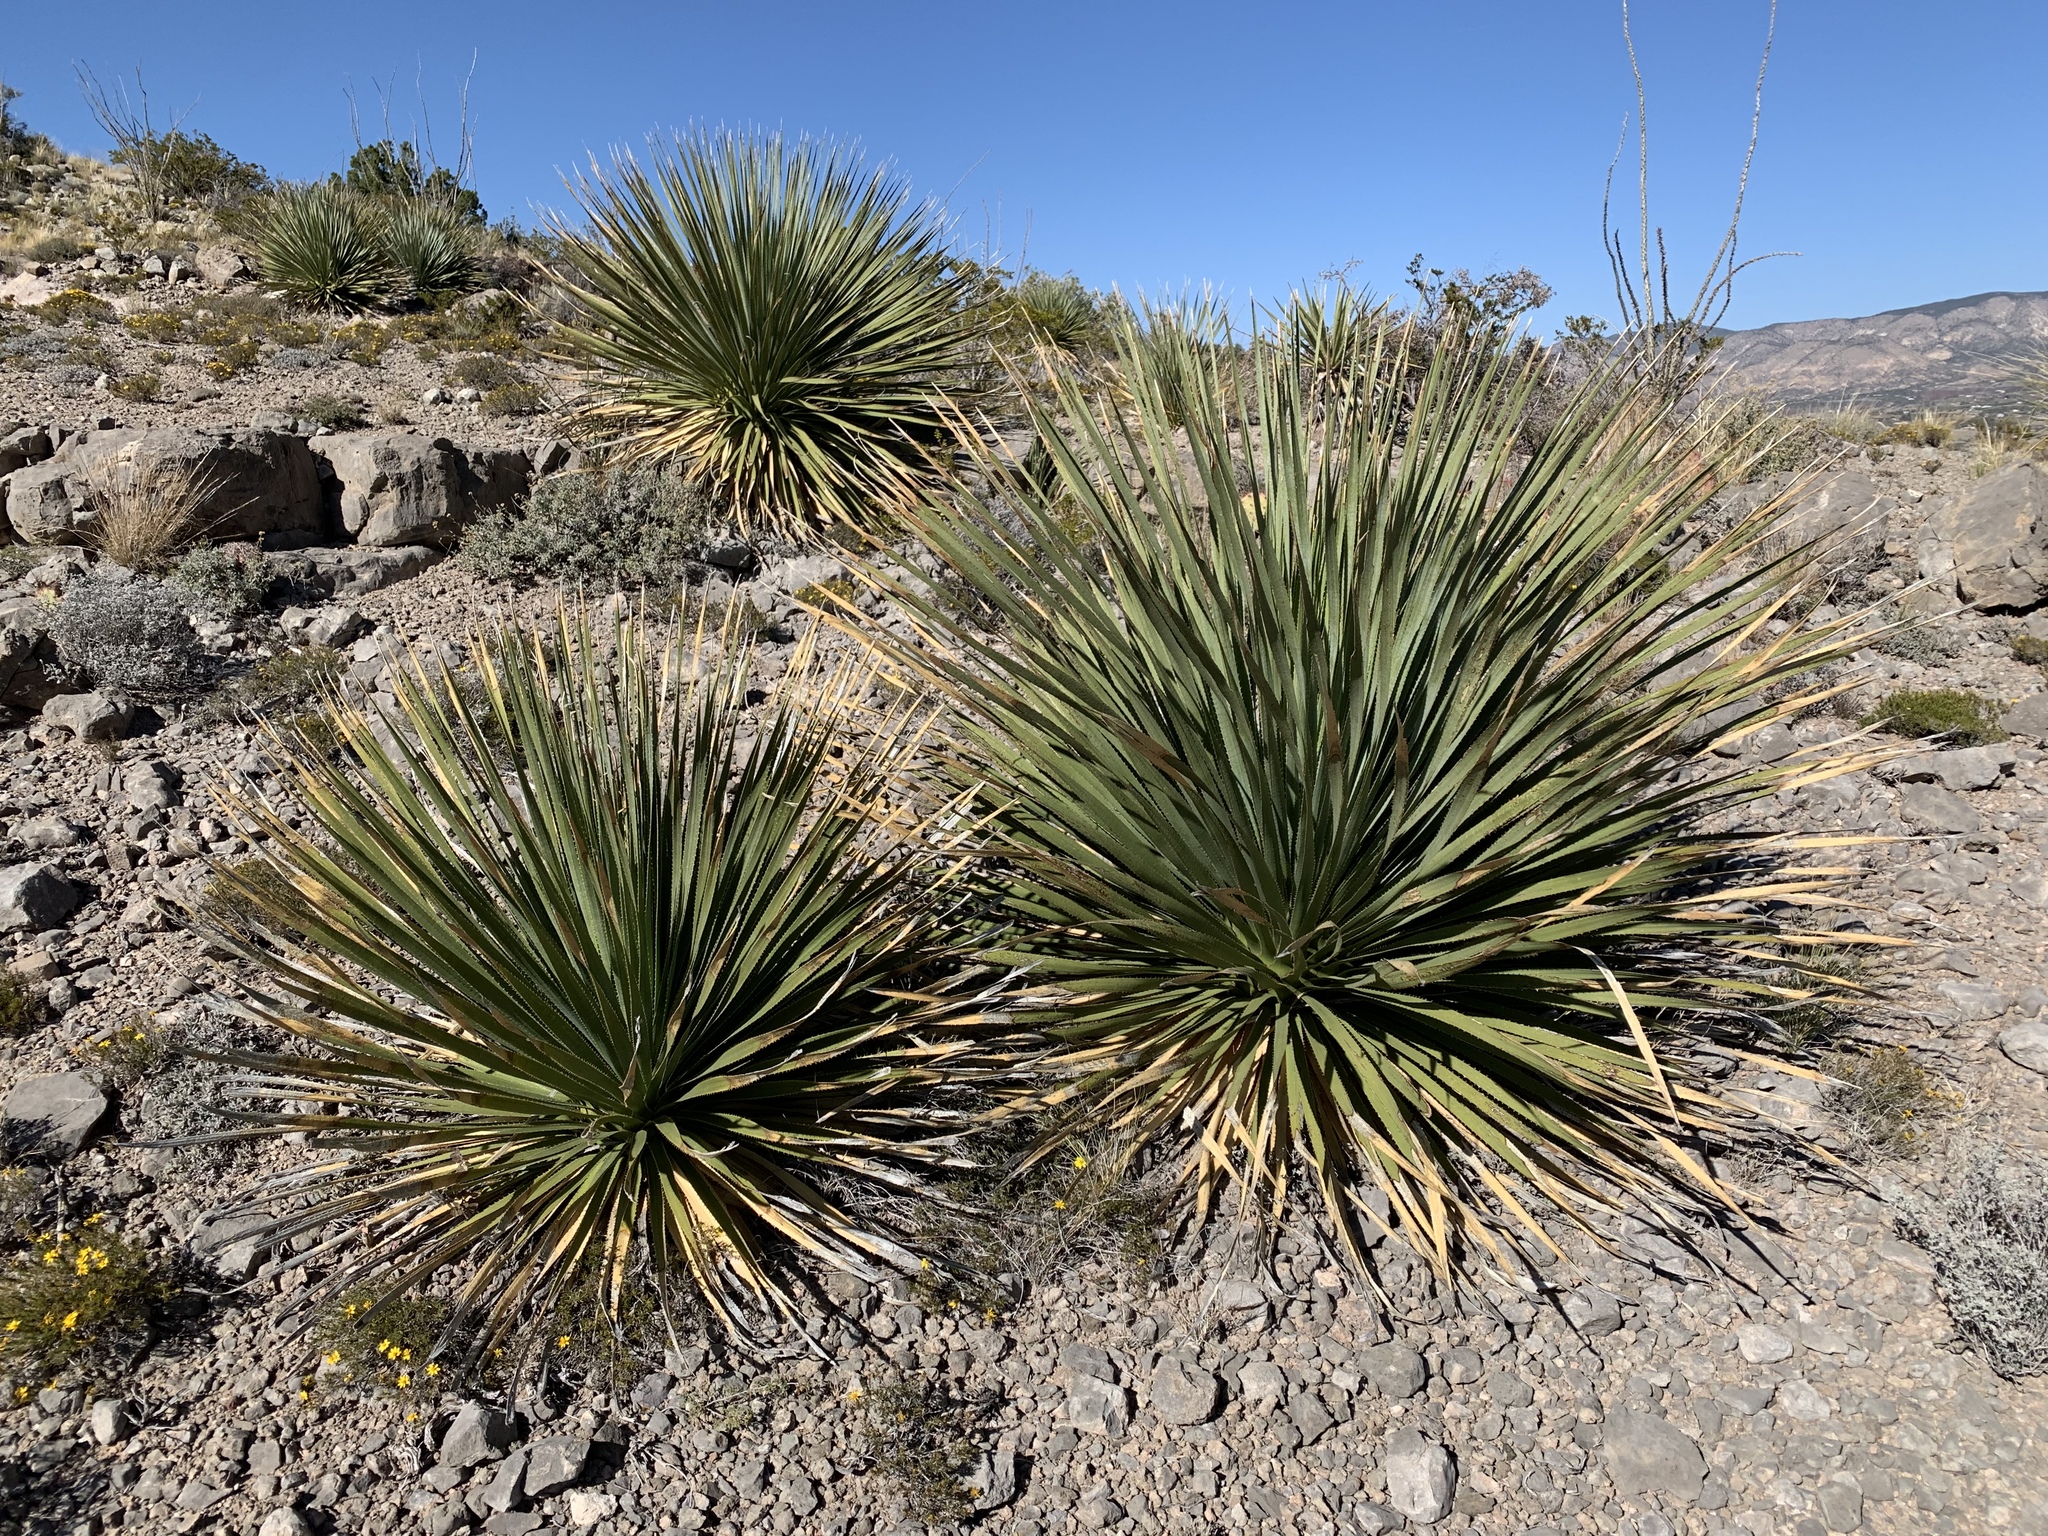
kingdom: Plantae
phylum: Tracheophyta
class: Liliopsida
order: Asparagales
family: Asparagaceae
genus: Dasylirion
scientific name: Dasylirion wheeleri
